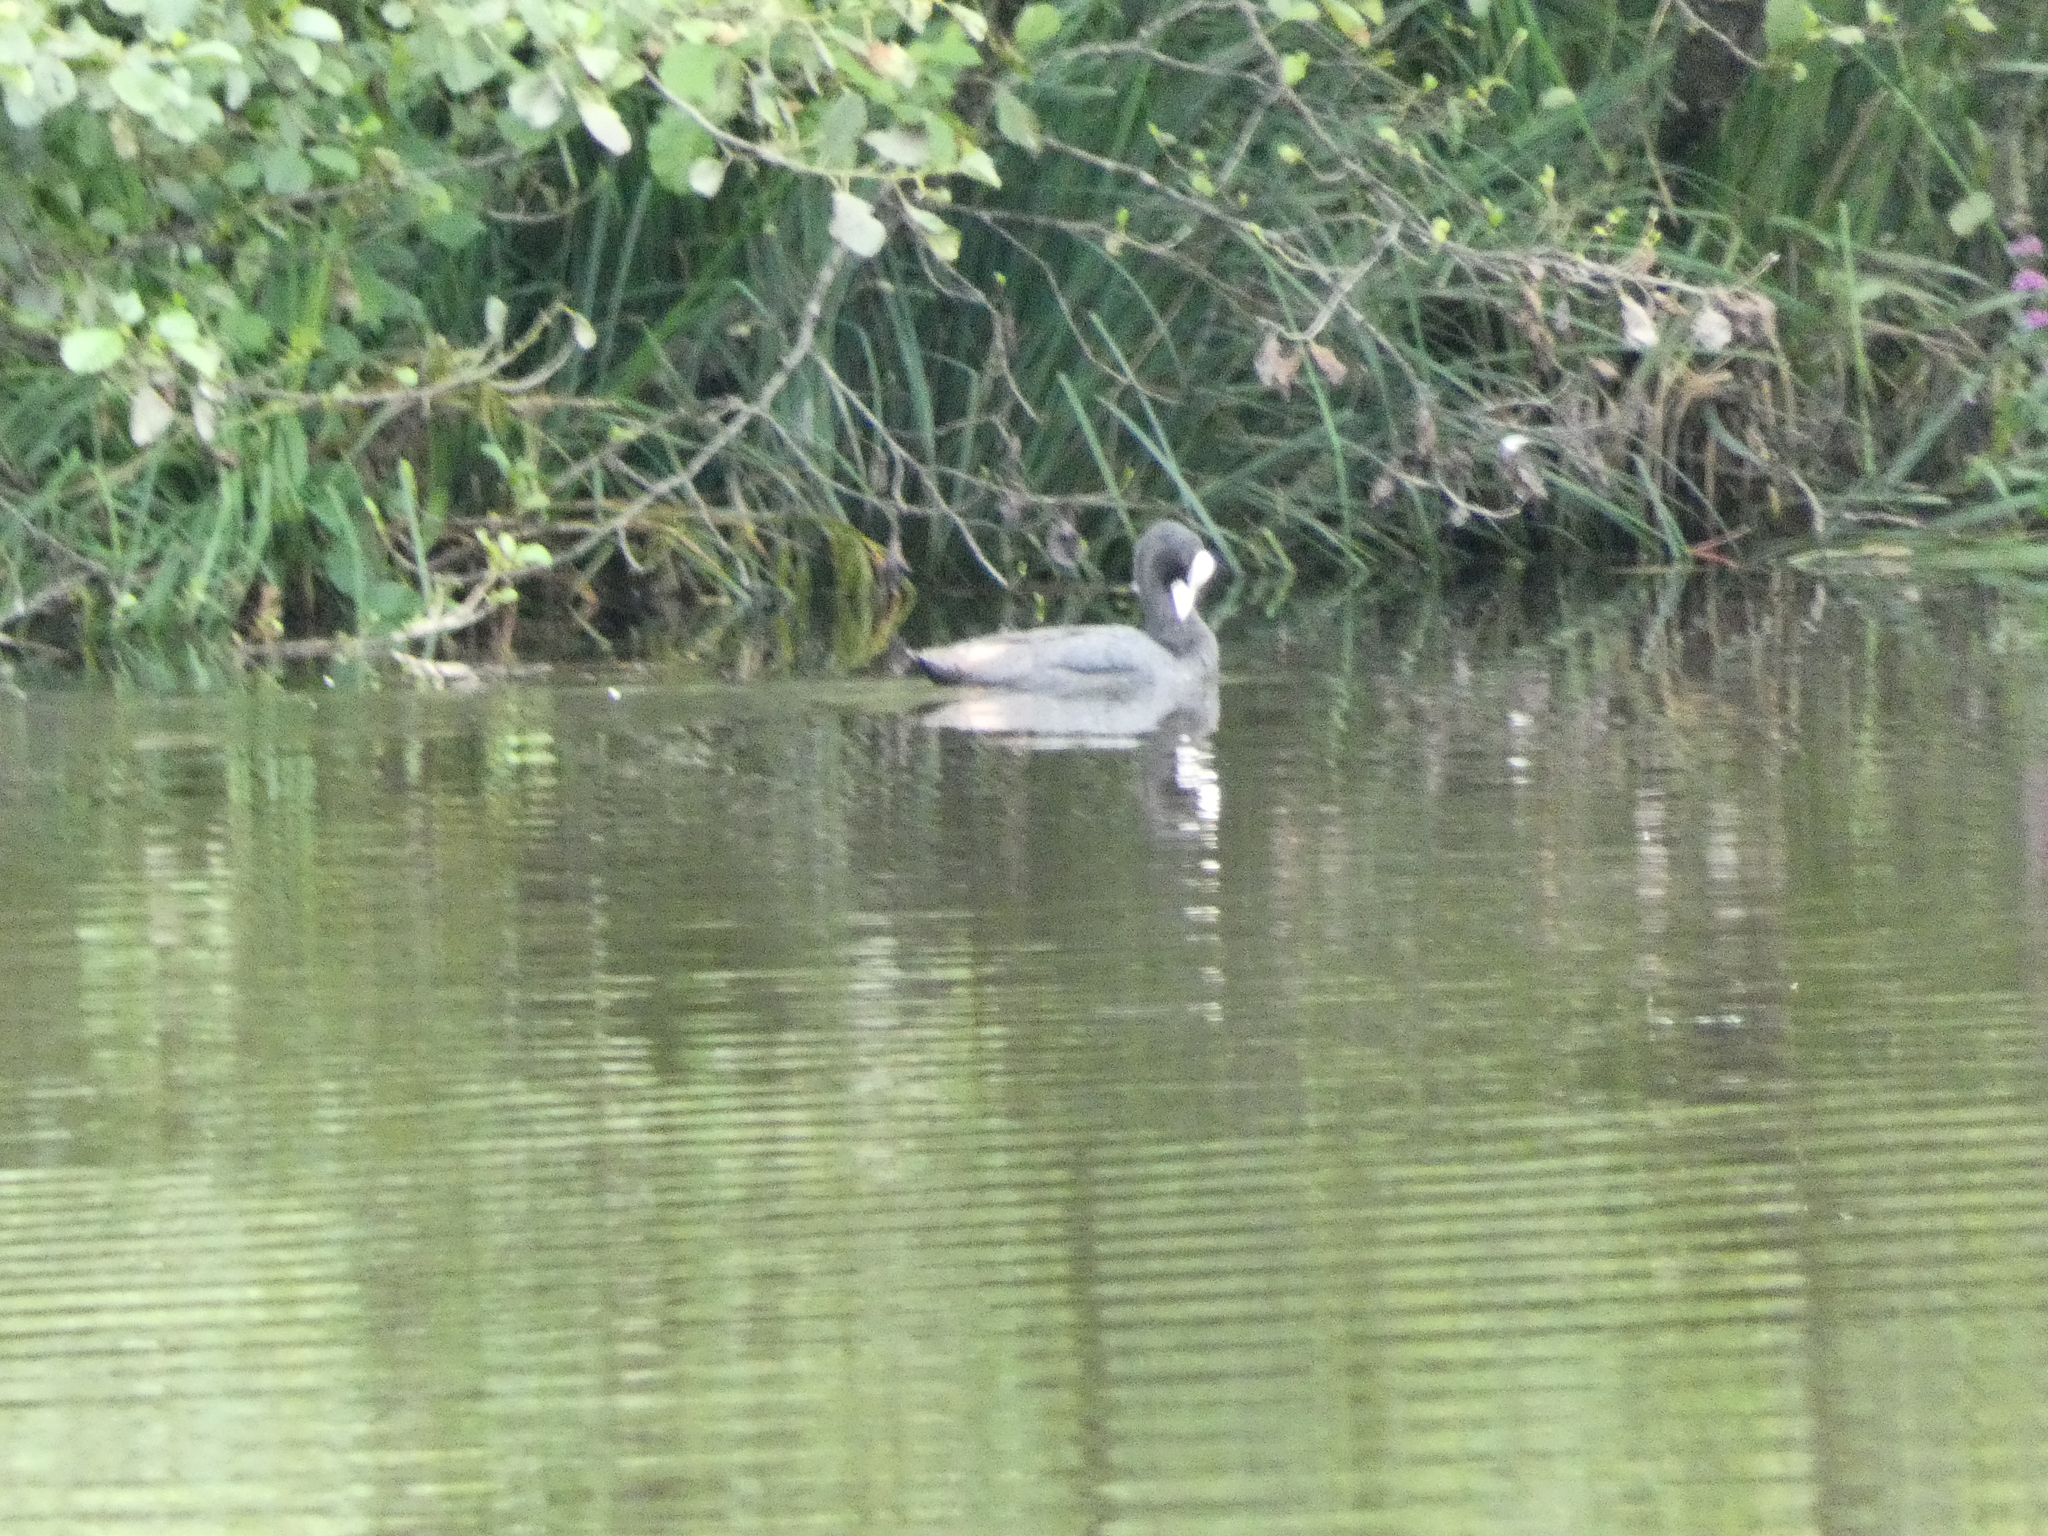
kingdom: Animalia
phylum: Chordata
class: Aves
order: Gruiformes
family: Rallidae
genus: Fulica
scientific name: Fulica atra
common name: Eurasian coot
